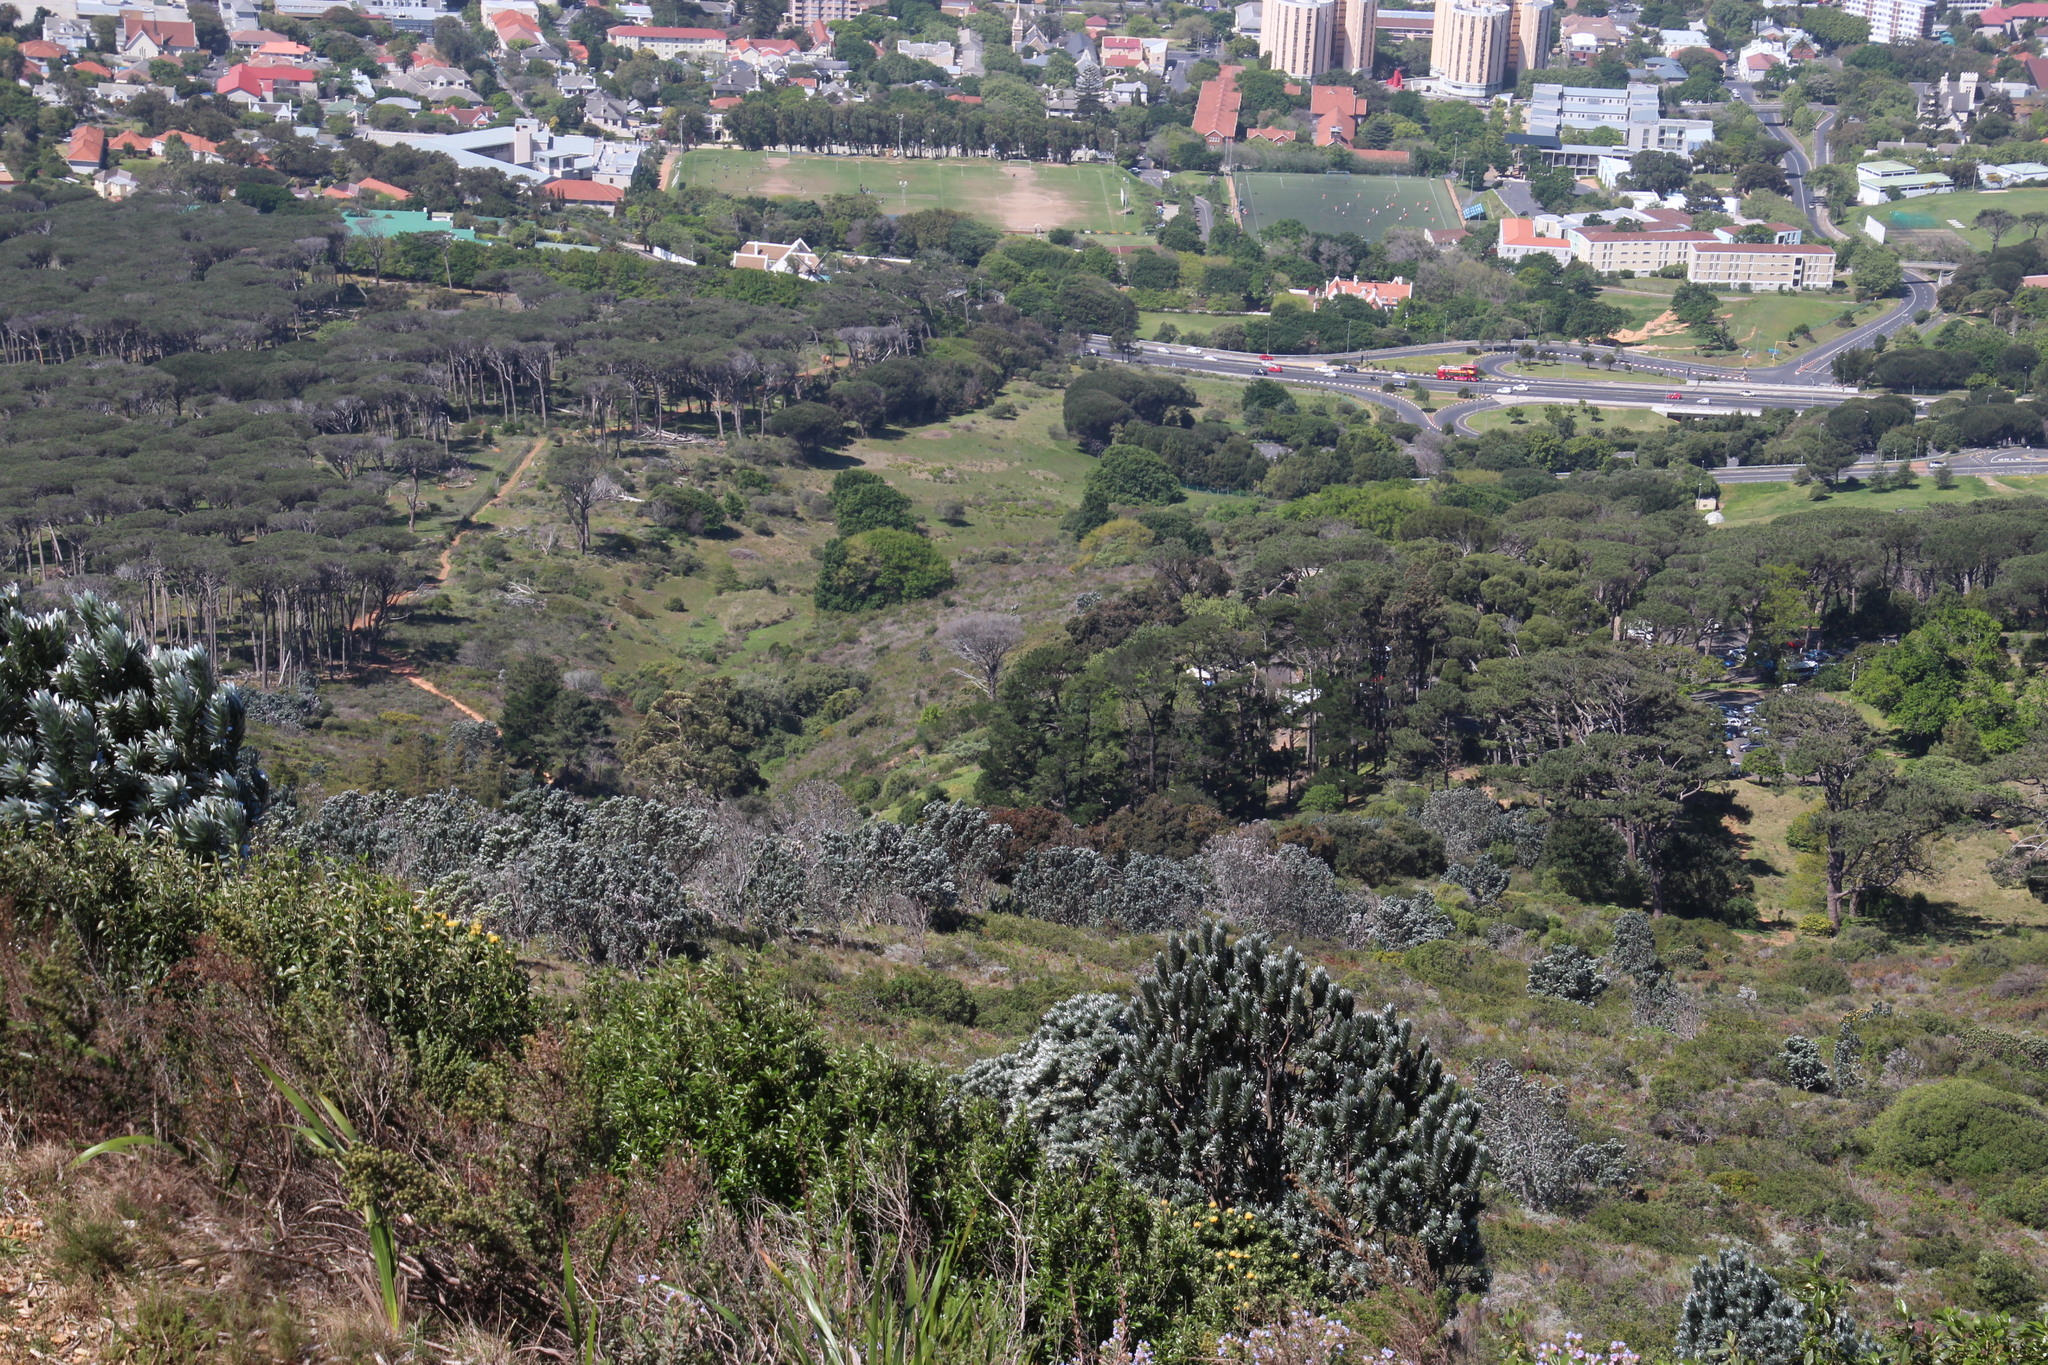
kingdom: Plantae
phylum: Tracheophyta
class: Magnoliopsida
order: Proteales
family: Proteaceae
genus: Leucadendron
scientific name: Leucadendron argenteum
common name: Cape silver tree
